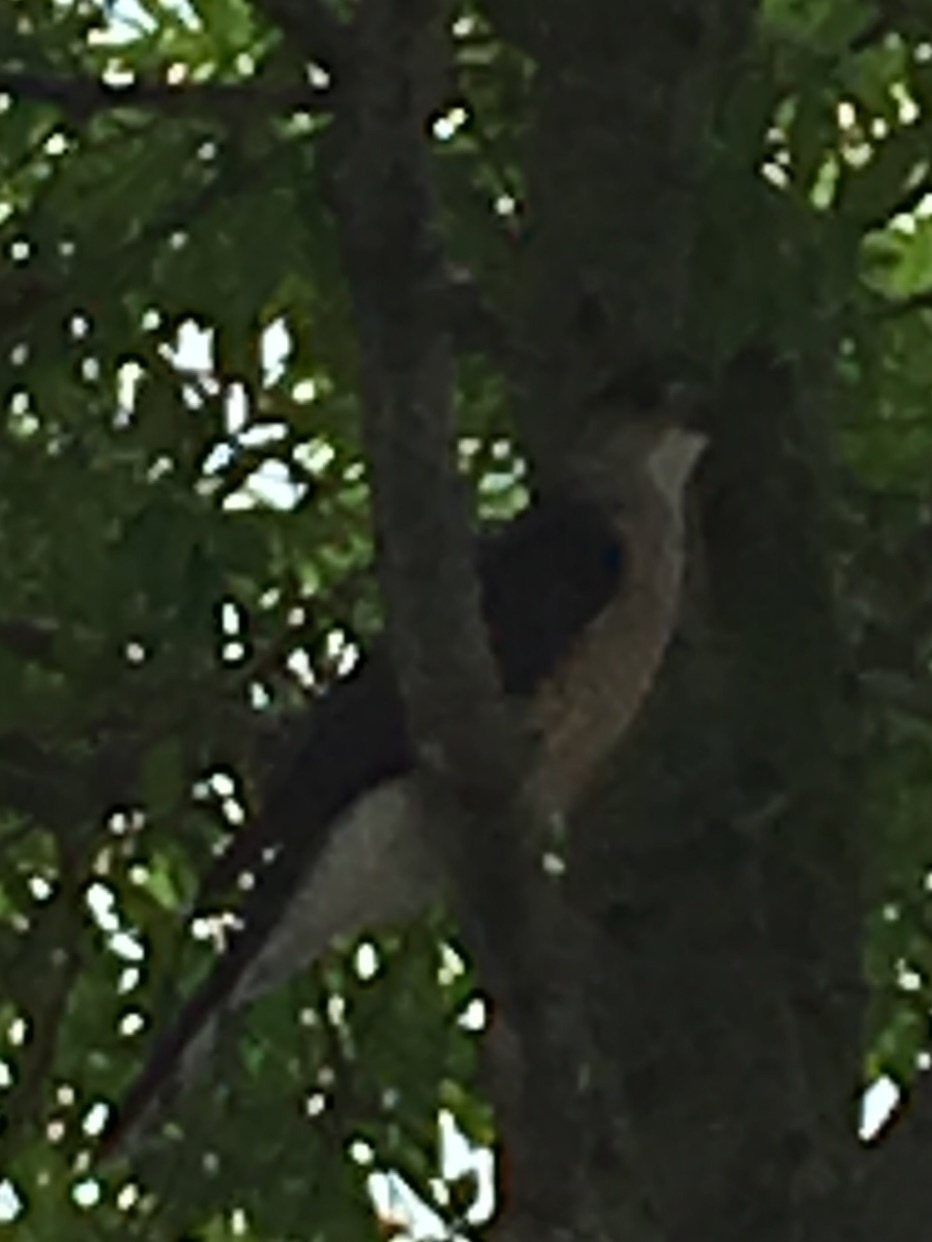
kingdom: Animalia
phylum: Chordata
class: Aves
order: Accipitriformes
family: Accipitridae
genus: Accipiter
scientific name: Accipiter cooperii
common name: Cooper's hawk
